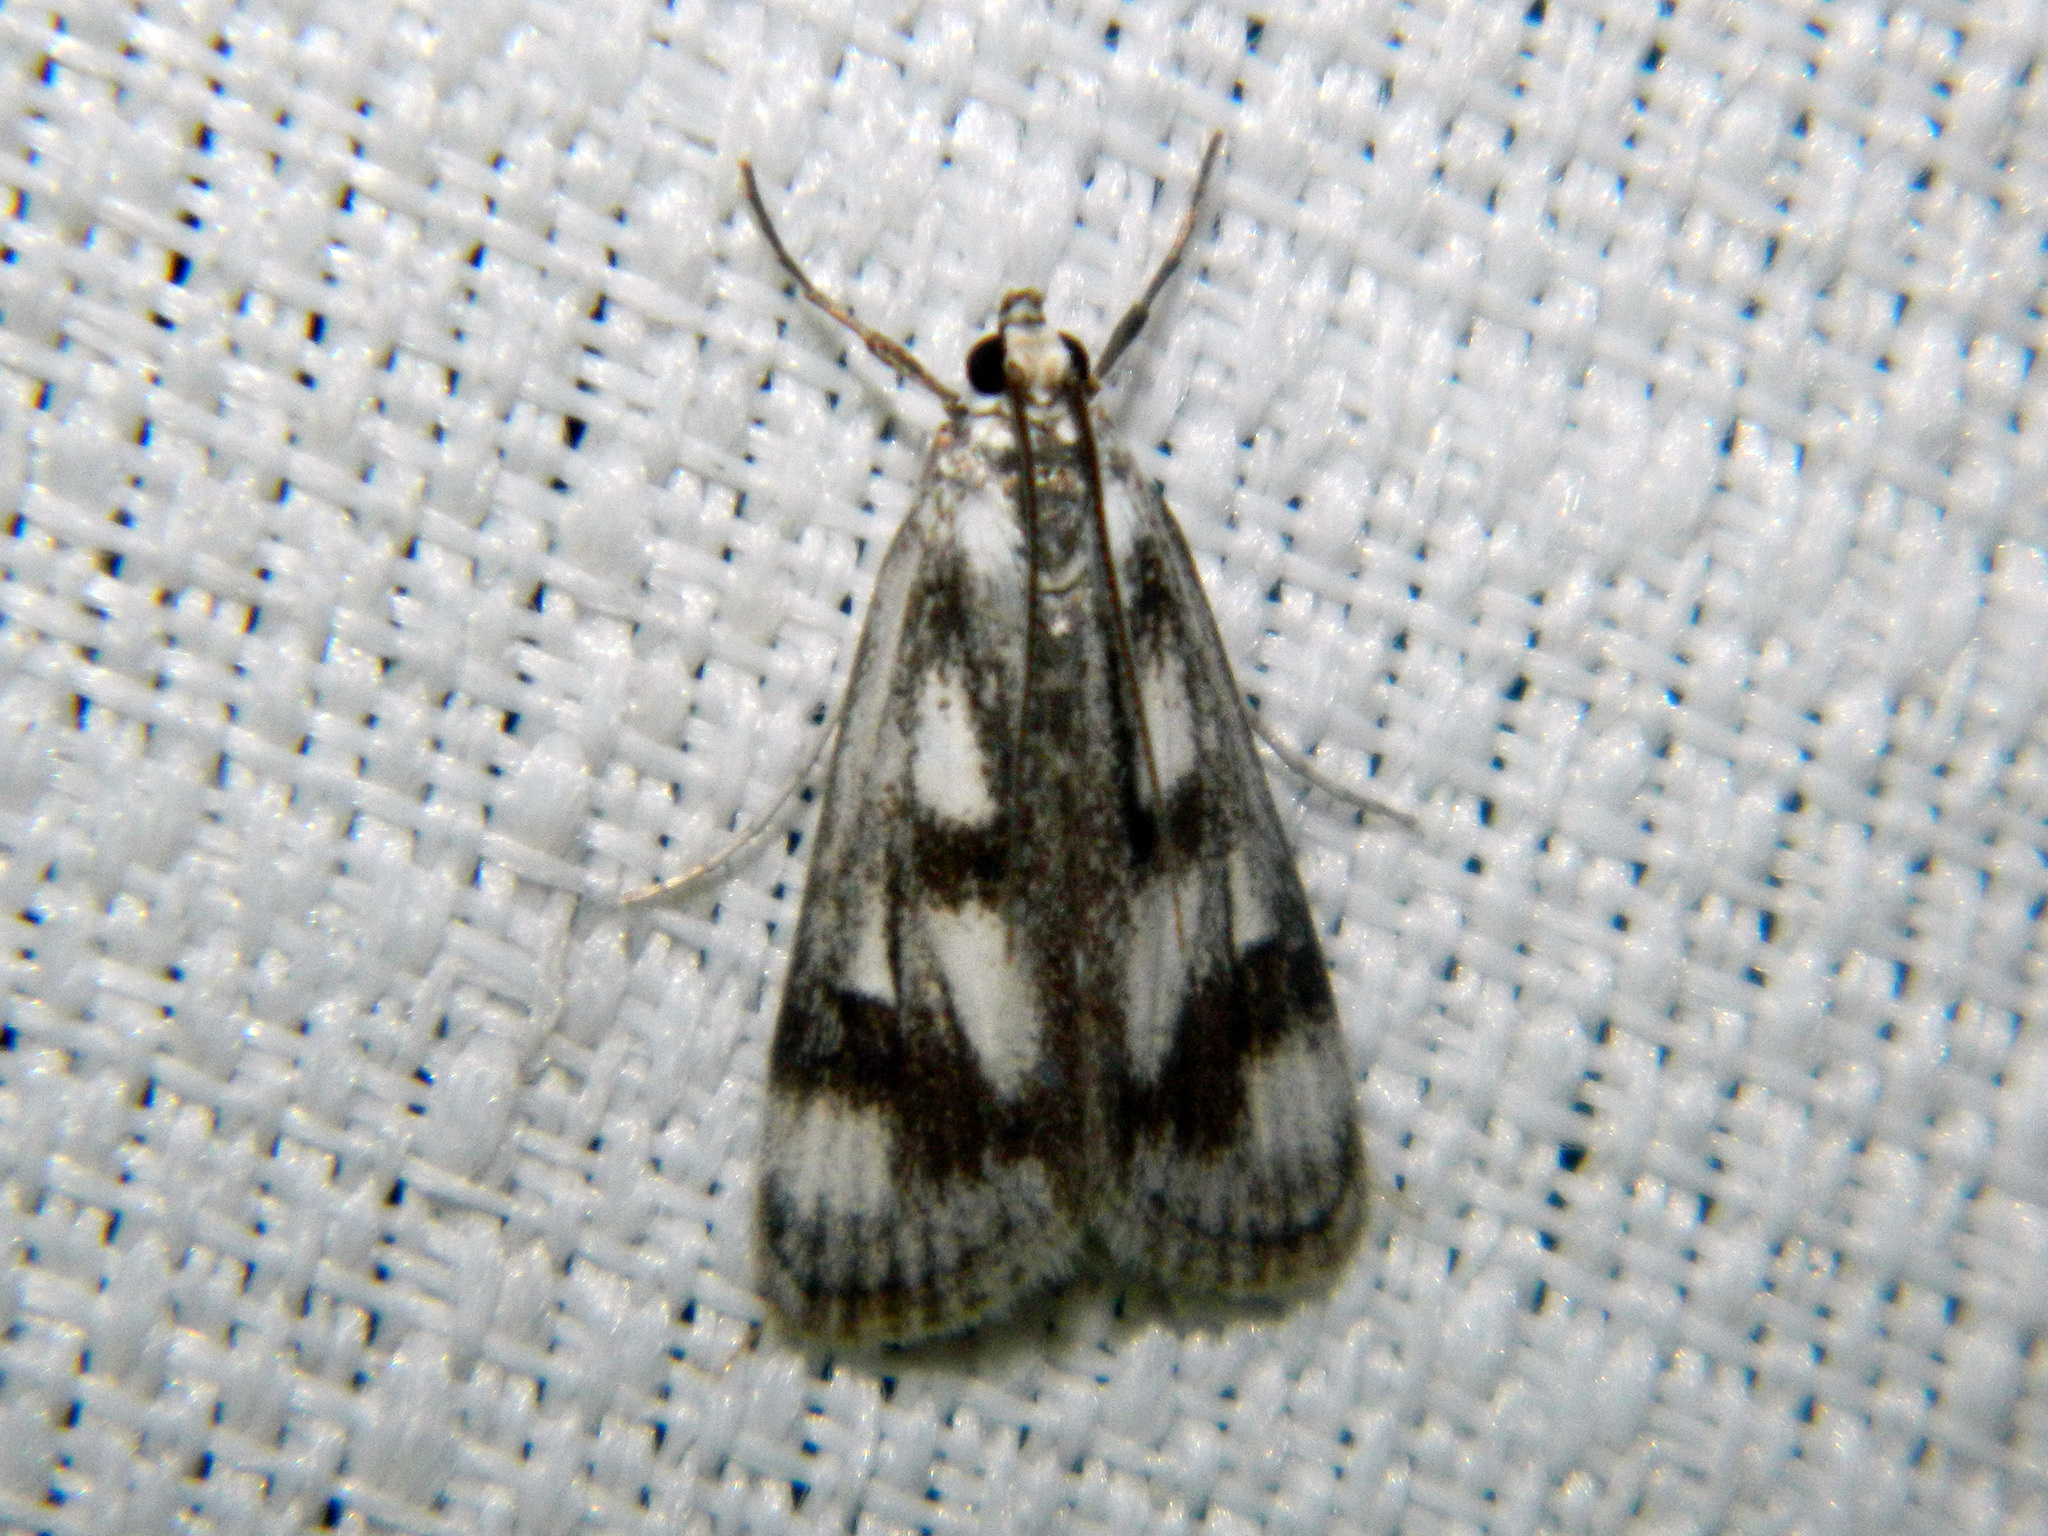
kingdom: Animalia
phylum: Arthropoda
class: Insecta
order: Lepidoptera
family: Crambidae
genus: Parapoynx
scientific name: Parapoynx maculalis
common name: Polymorphic pondweed moth
